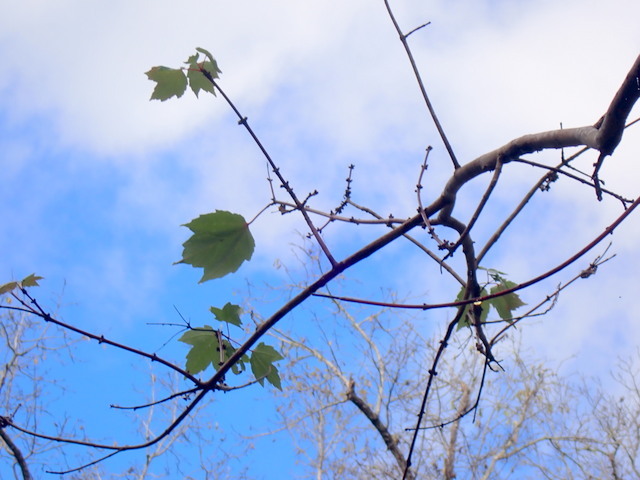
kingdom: Plantae
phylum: Tracheophyta
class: Magnoliopsida
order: Sapindales
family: Sapindaceae
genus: Acer
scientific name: Acer rubrum
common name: Red maple
